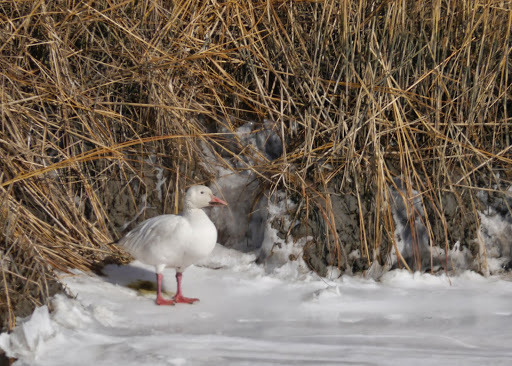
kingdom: Animalia
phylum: Chordata
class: Aves
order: Anseriformes
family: Anatidae
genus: Anser
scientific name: Anser caerulescens
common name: Snow goose
